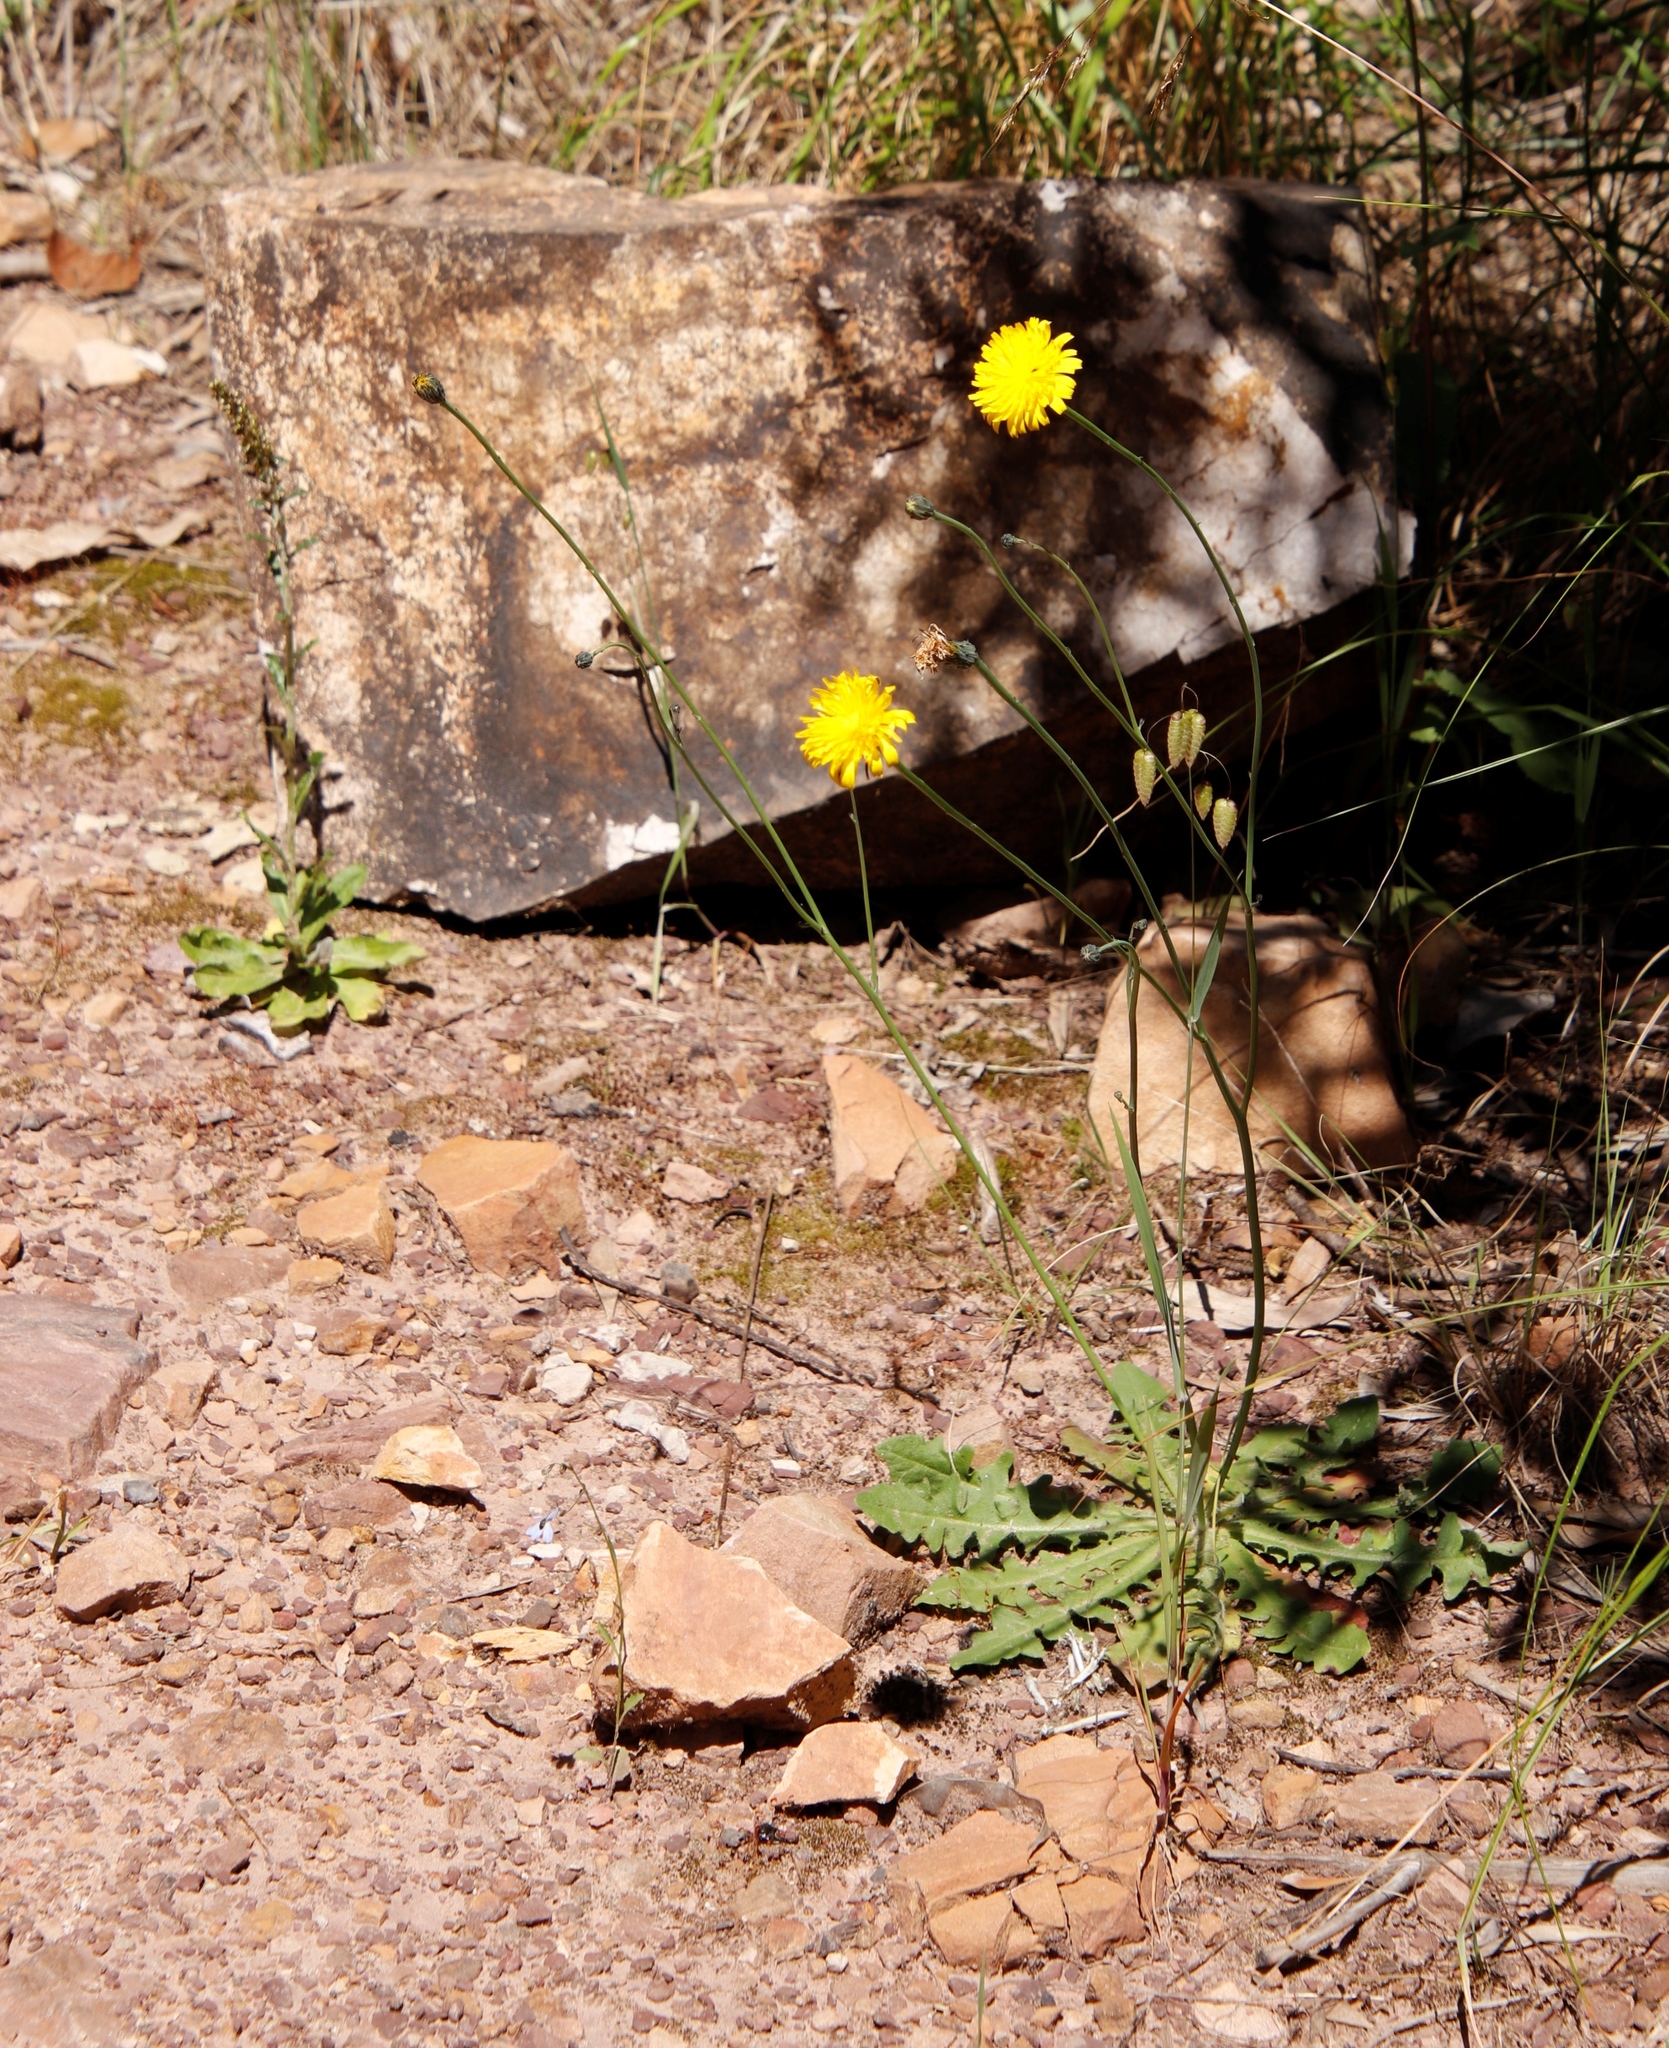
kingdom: Plantae
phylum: Tracheophyta
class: Magnoliopsida
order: Asterales
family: Asteraceae
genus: Hypochaeris
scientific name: Hypochaeris radicata
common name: Flatweed
